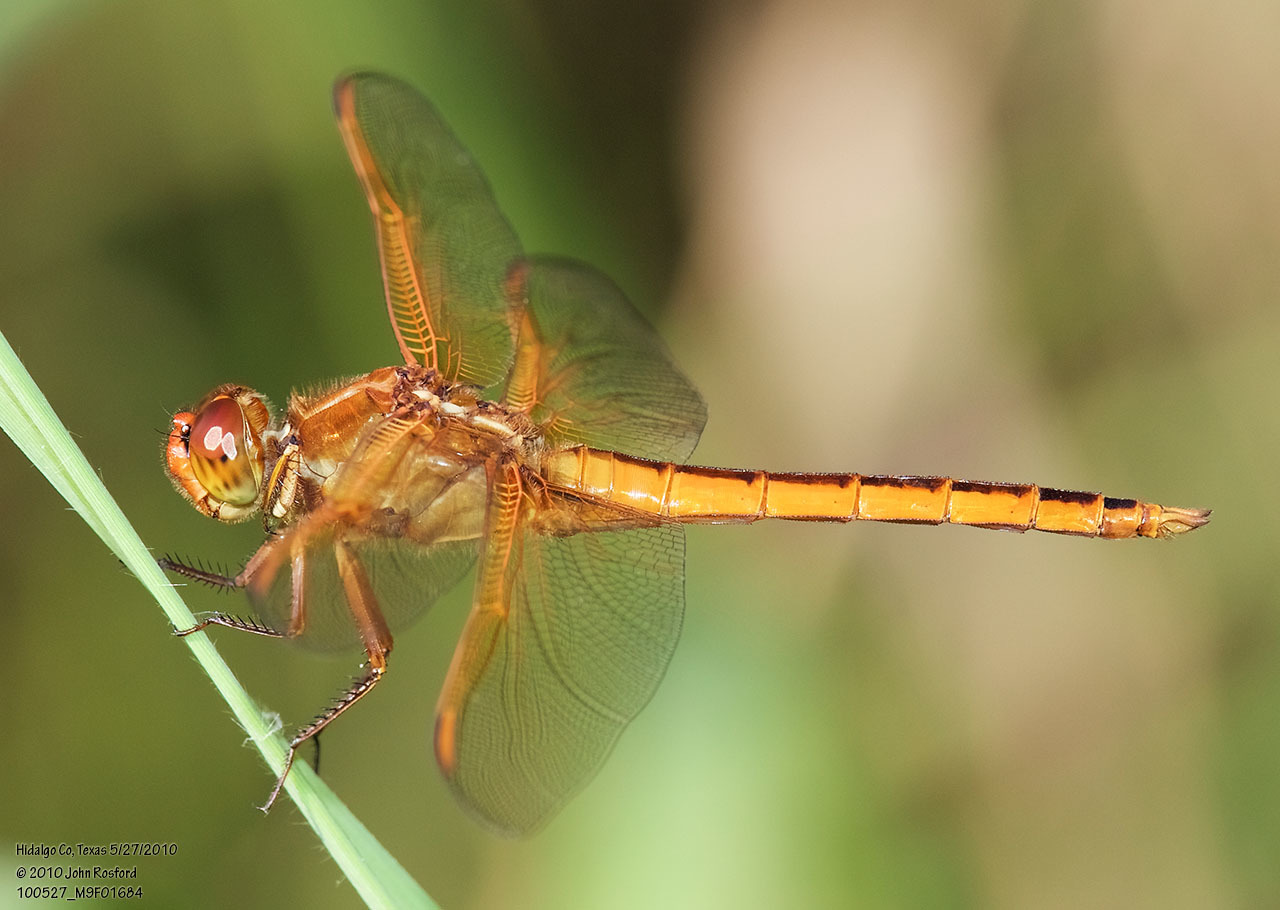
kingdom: Animalia
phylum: Arthropoda
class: Insecta
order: Odonata
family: Libellulidae
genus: Libellula
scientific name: Libellula needhami
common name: Needham's skimmer
